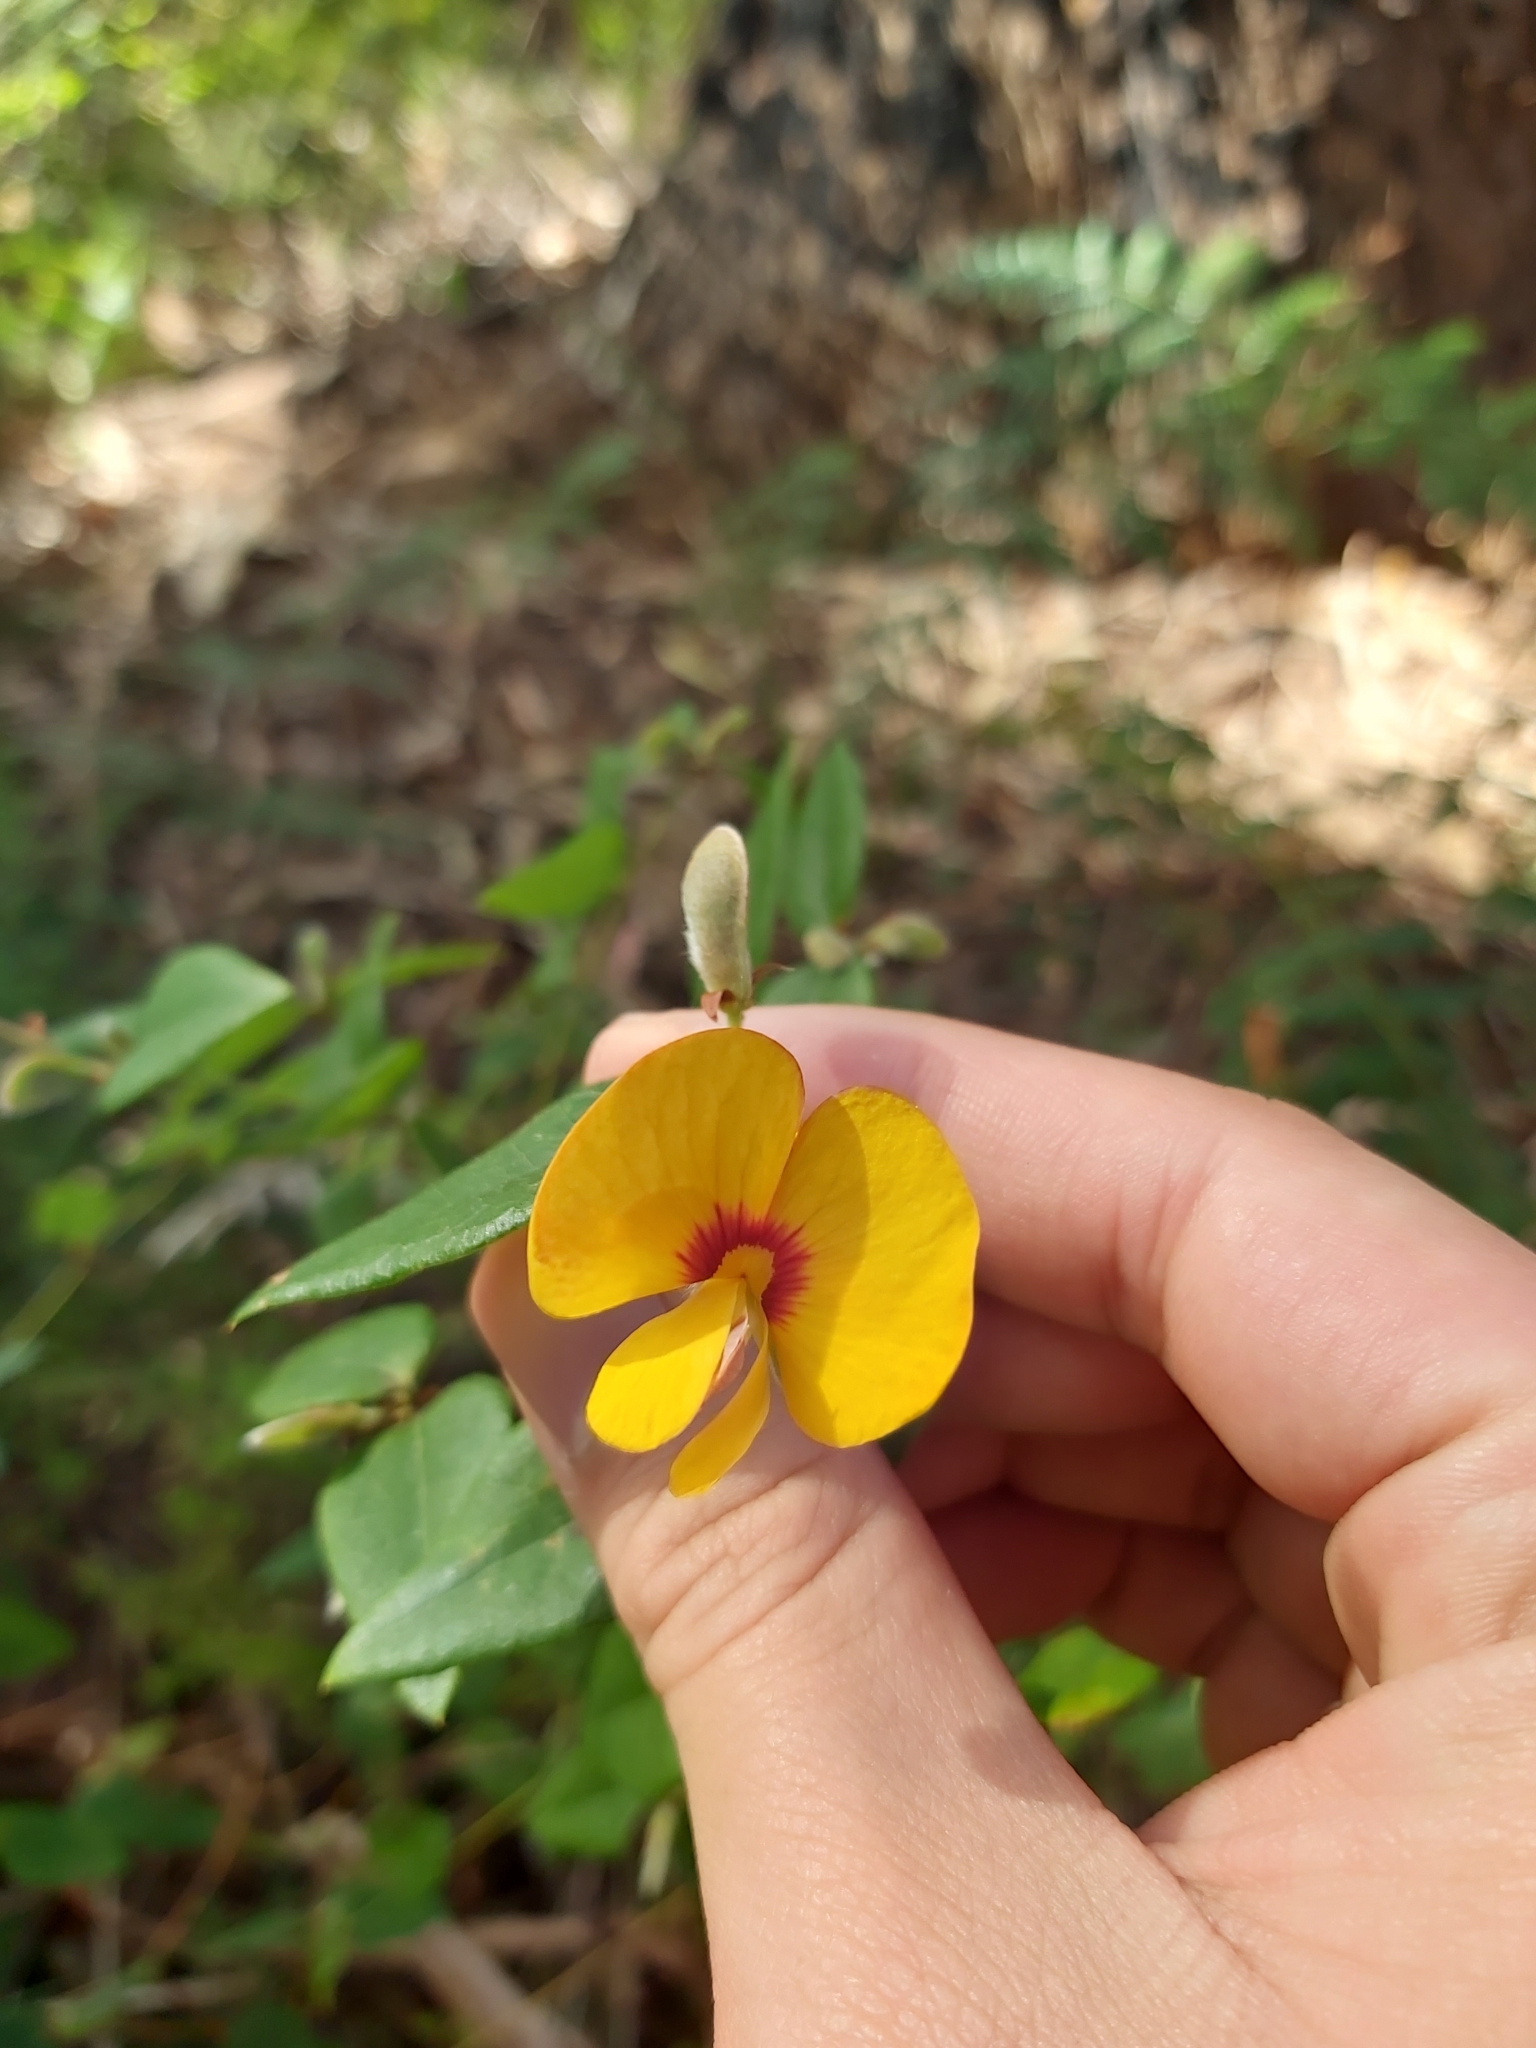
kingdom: Plantae
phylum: Tracheophyta
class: Magnoliopsida
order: Fabales
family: Fabaceae
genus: Platylobium
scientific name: Platylobium formosum
